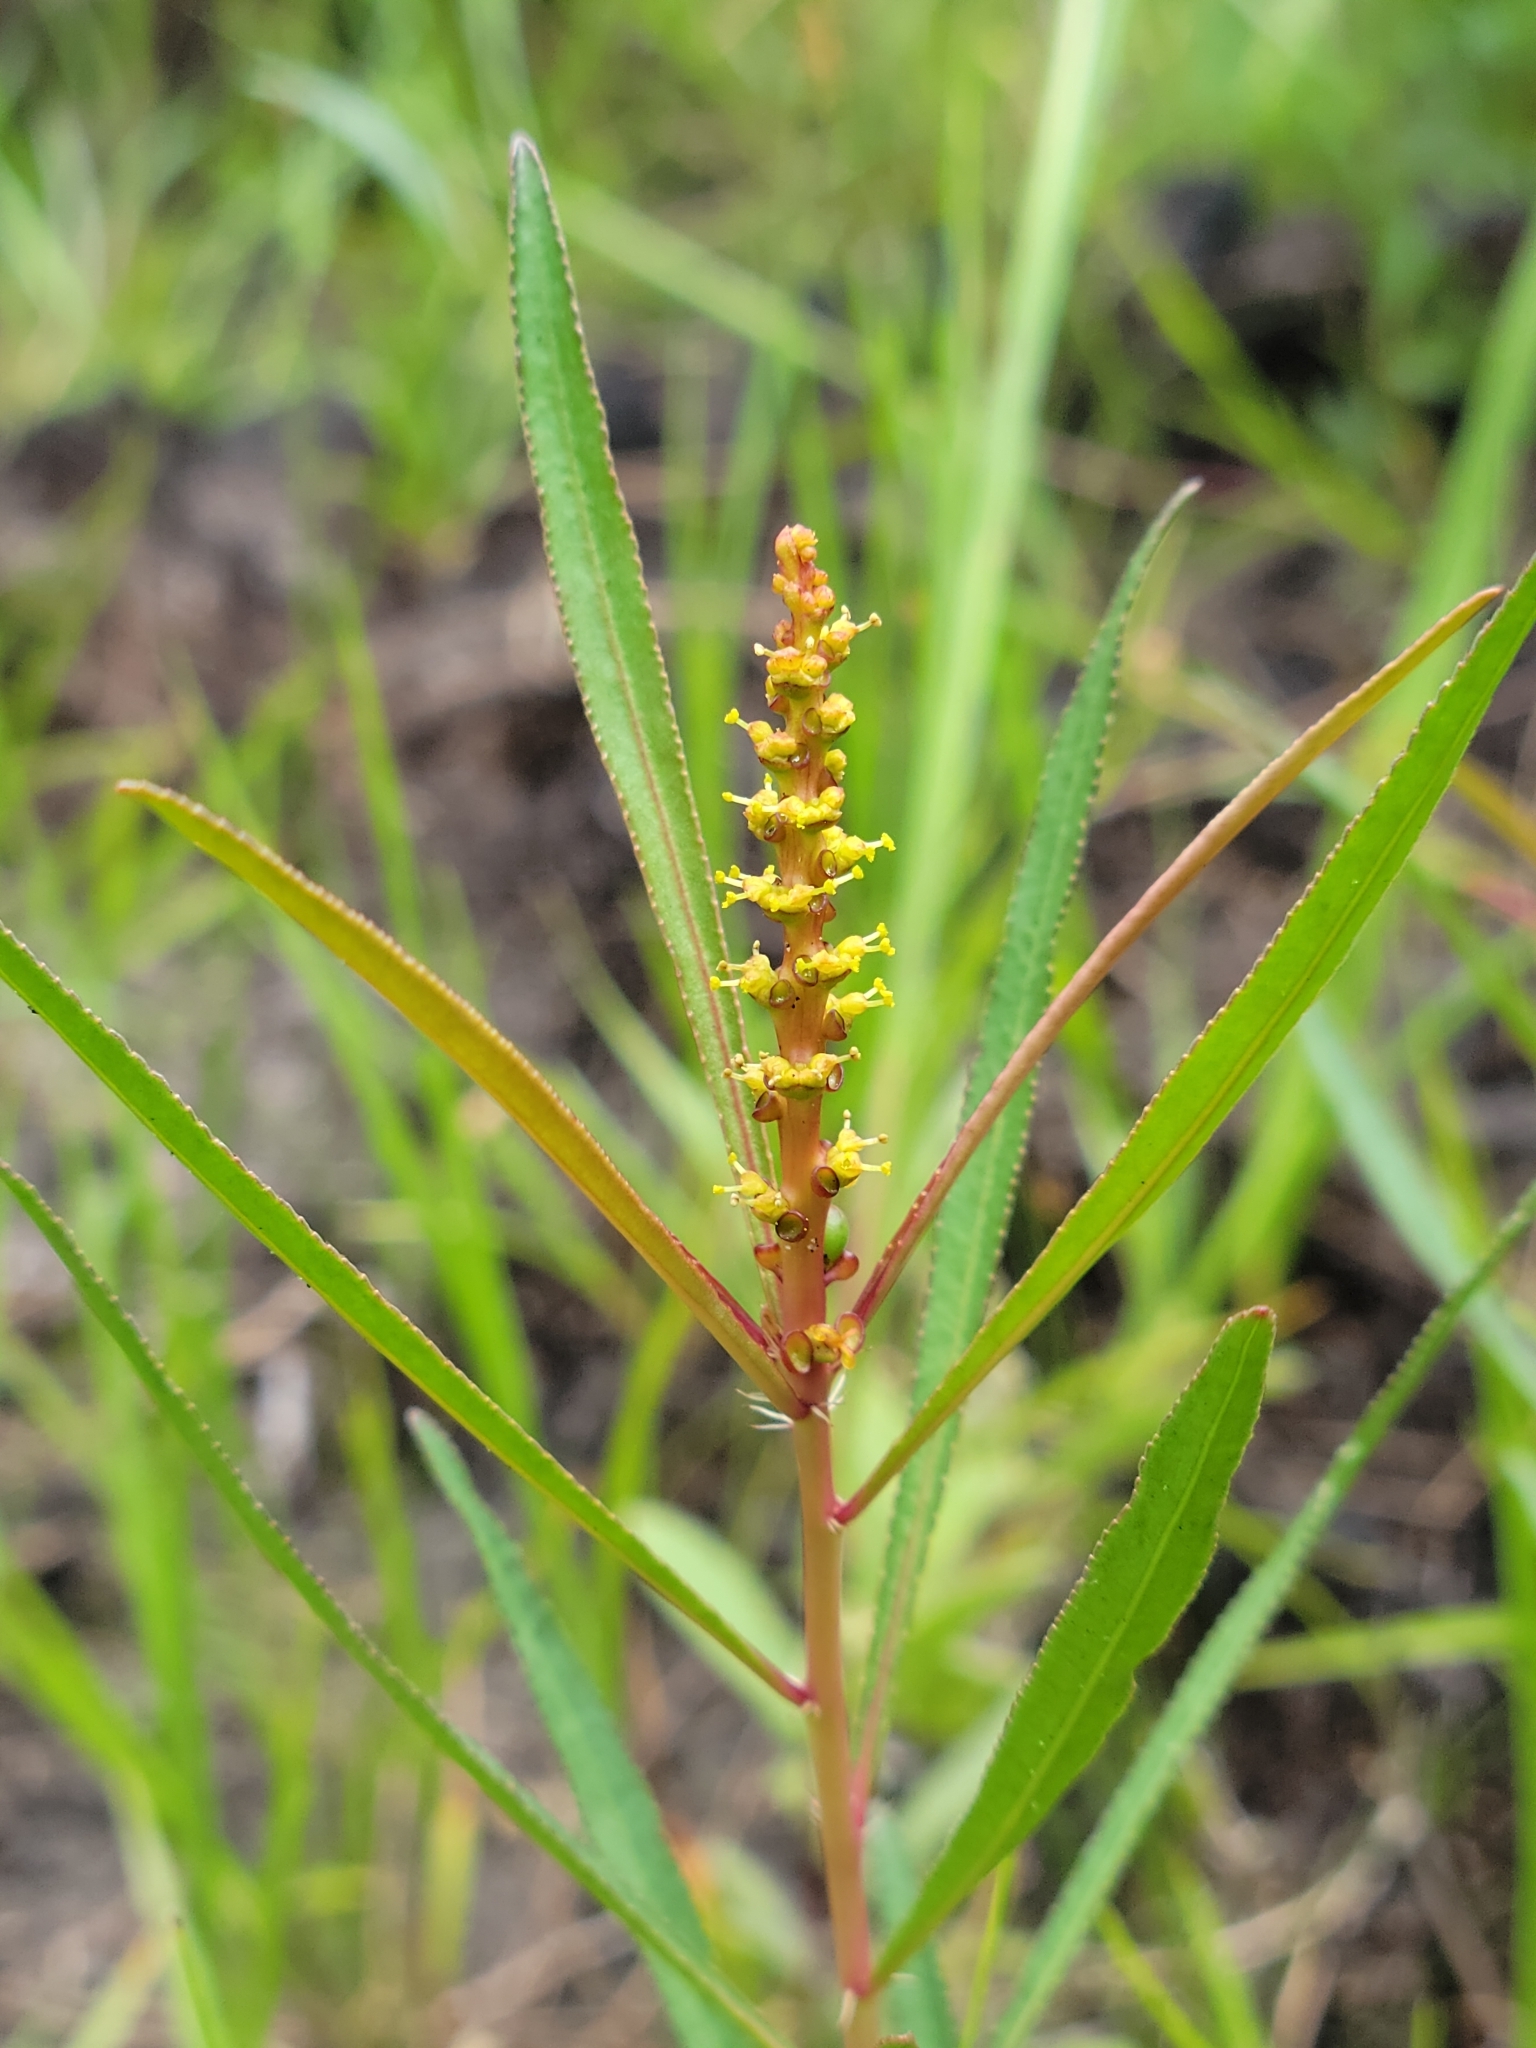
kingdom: Plantae
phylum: Tracheophyta
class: Magnoliopsida
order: Malpighiales
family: Euphorbiaceae
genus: Stillingia
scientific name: Stillingia sylvatica
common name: Queen's-delight
